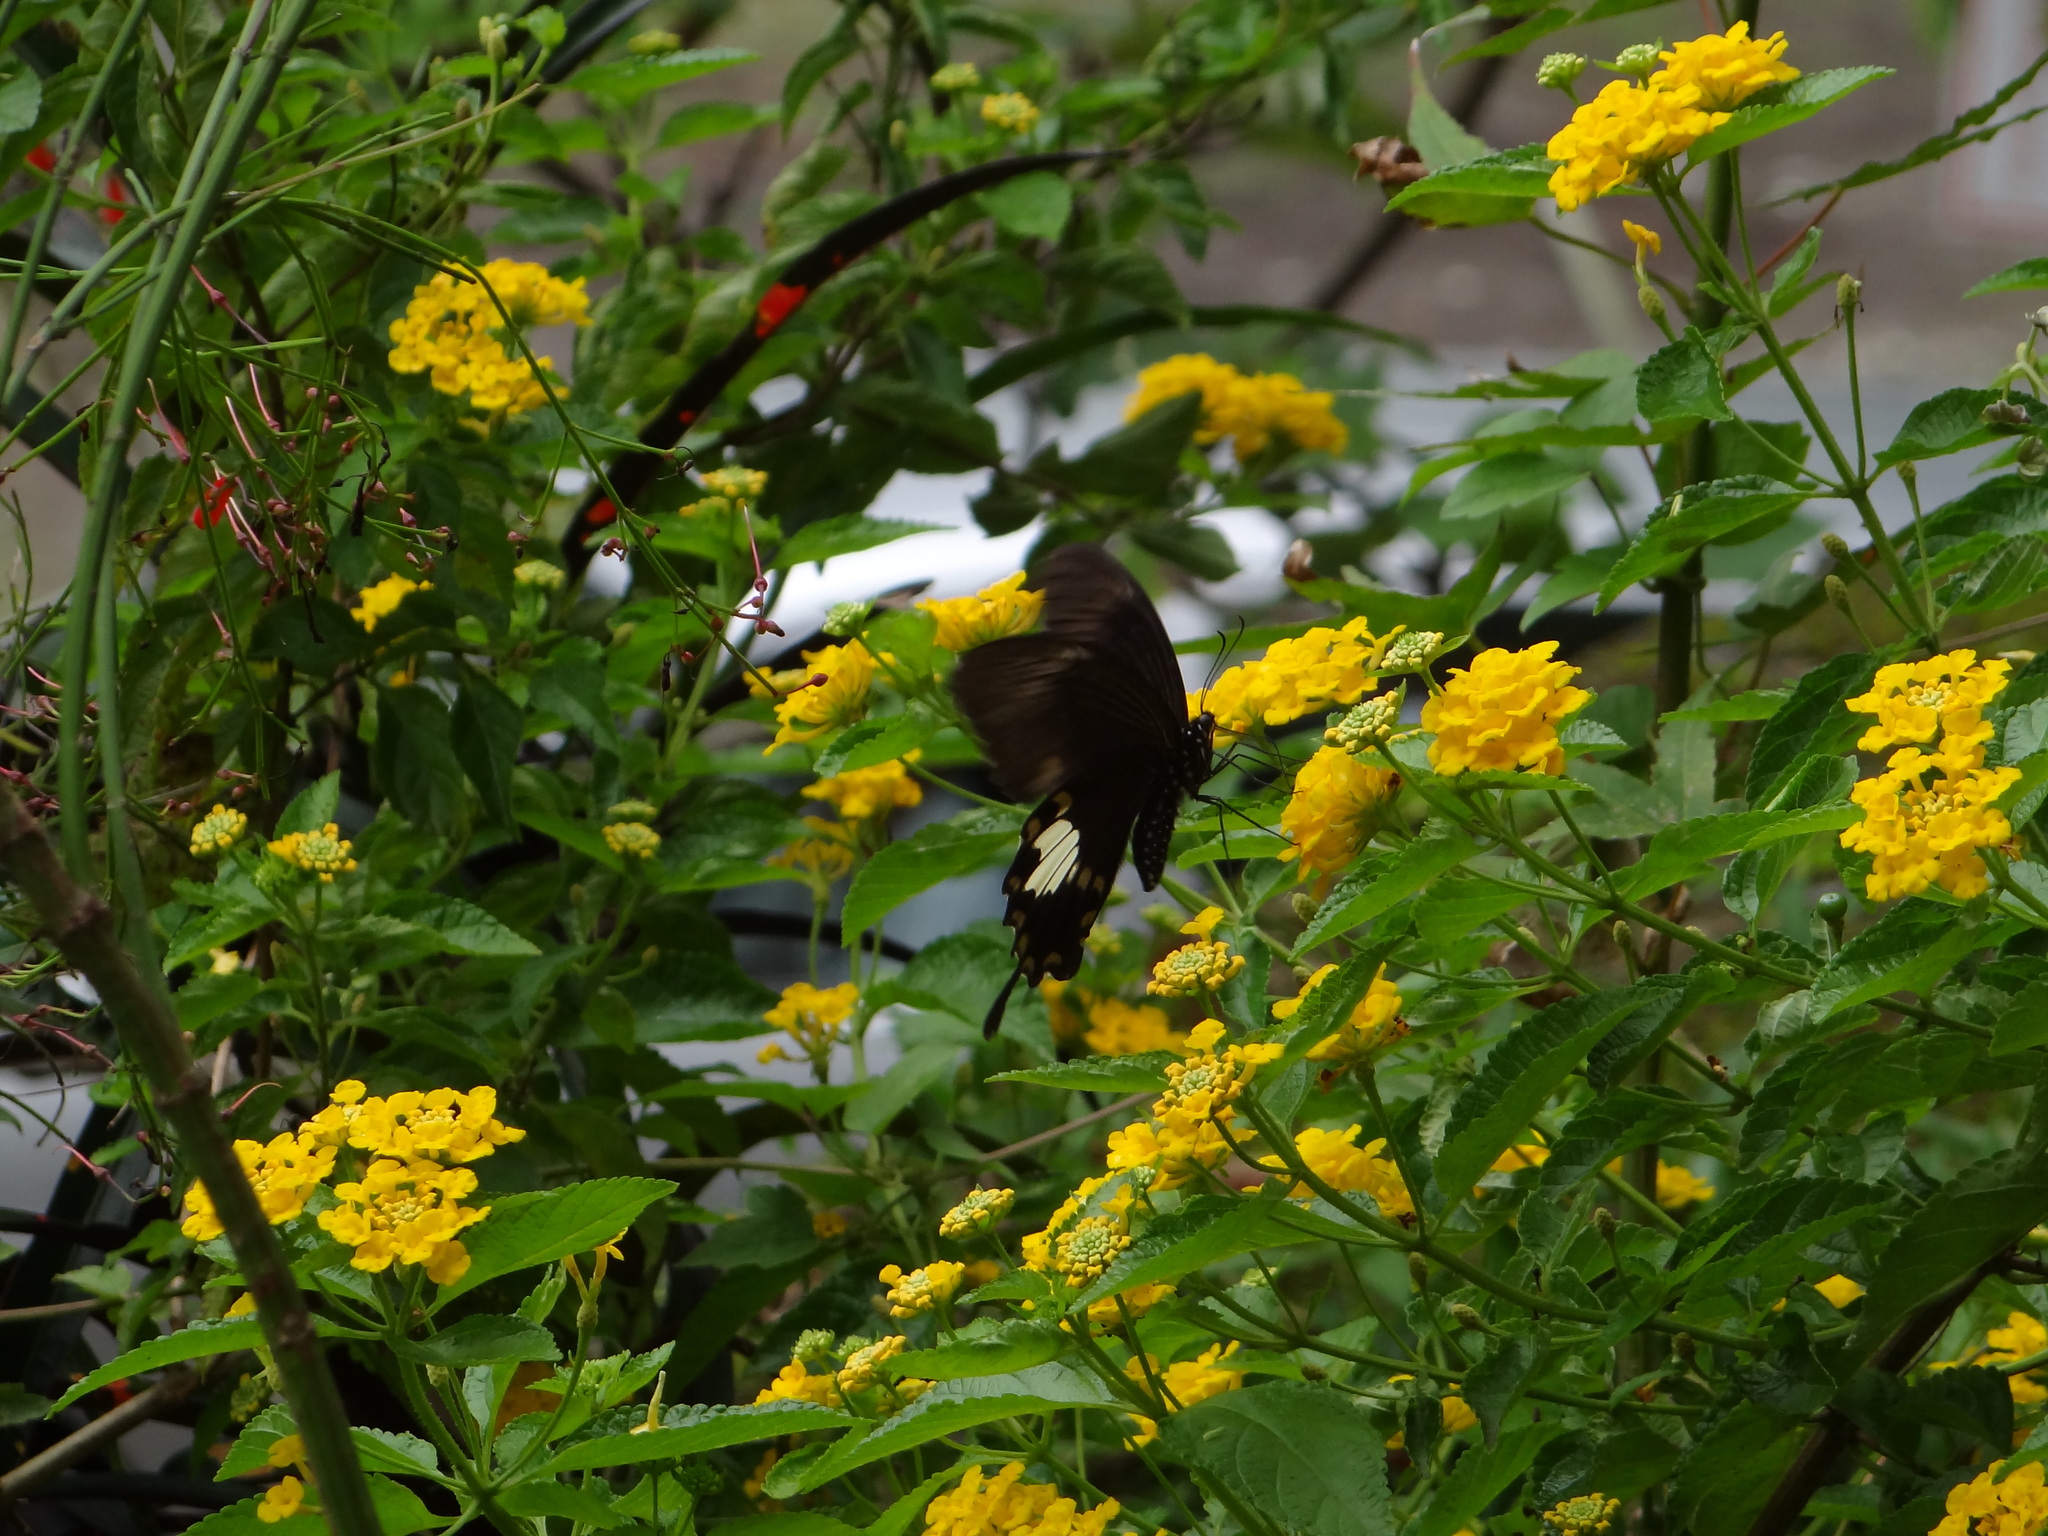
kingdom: Animalia
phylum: Arthropoda
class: Insecta
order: Lepidoptera
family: Papilionidae
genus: Papilio
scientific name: Papilio nephelus
